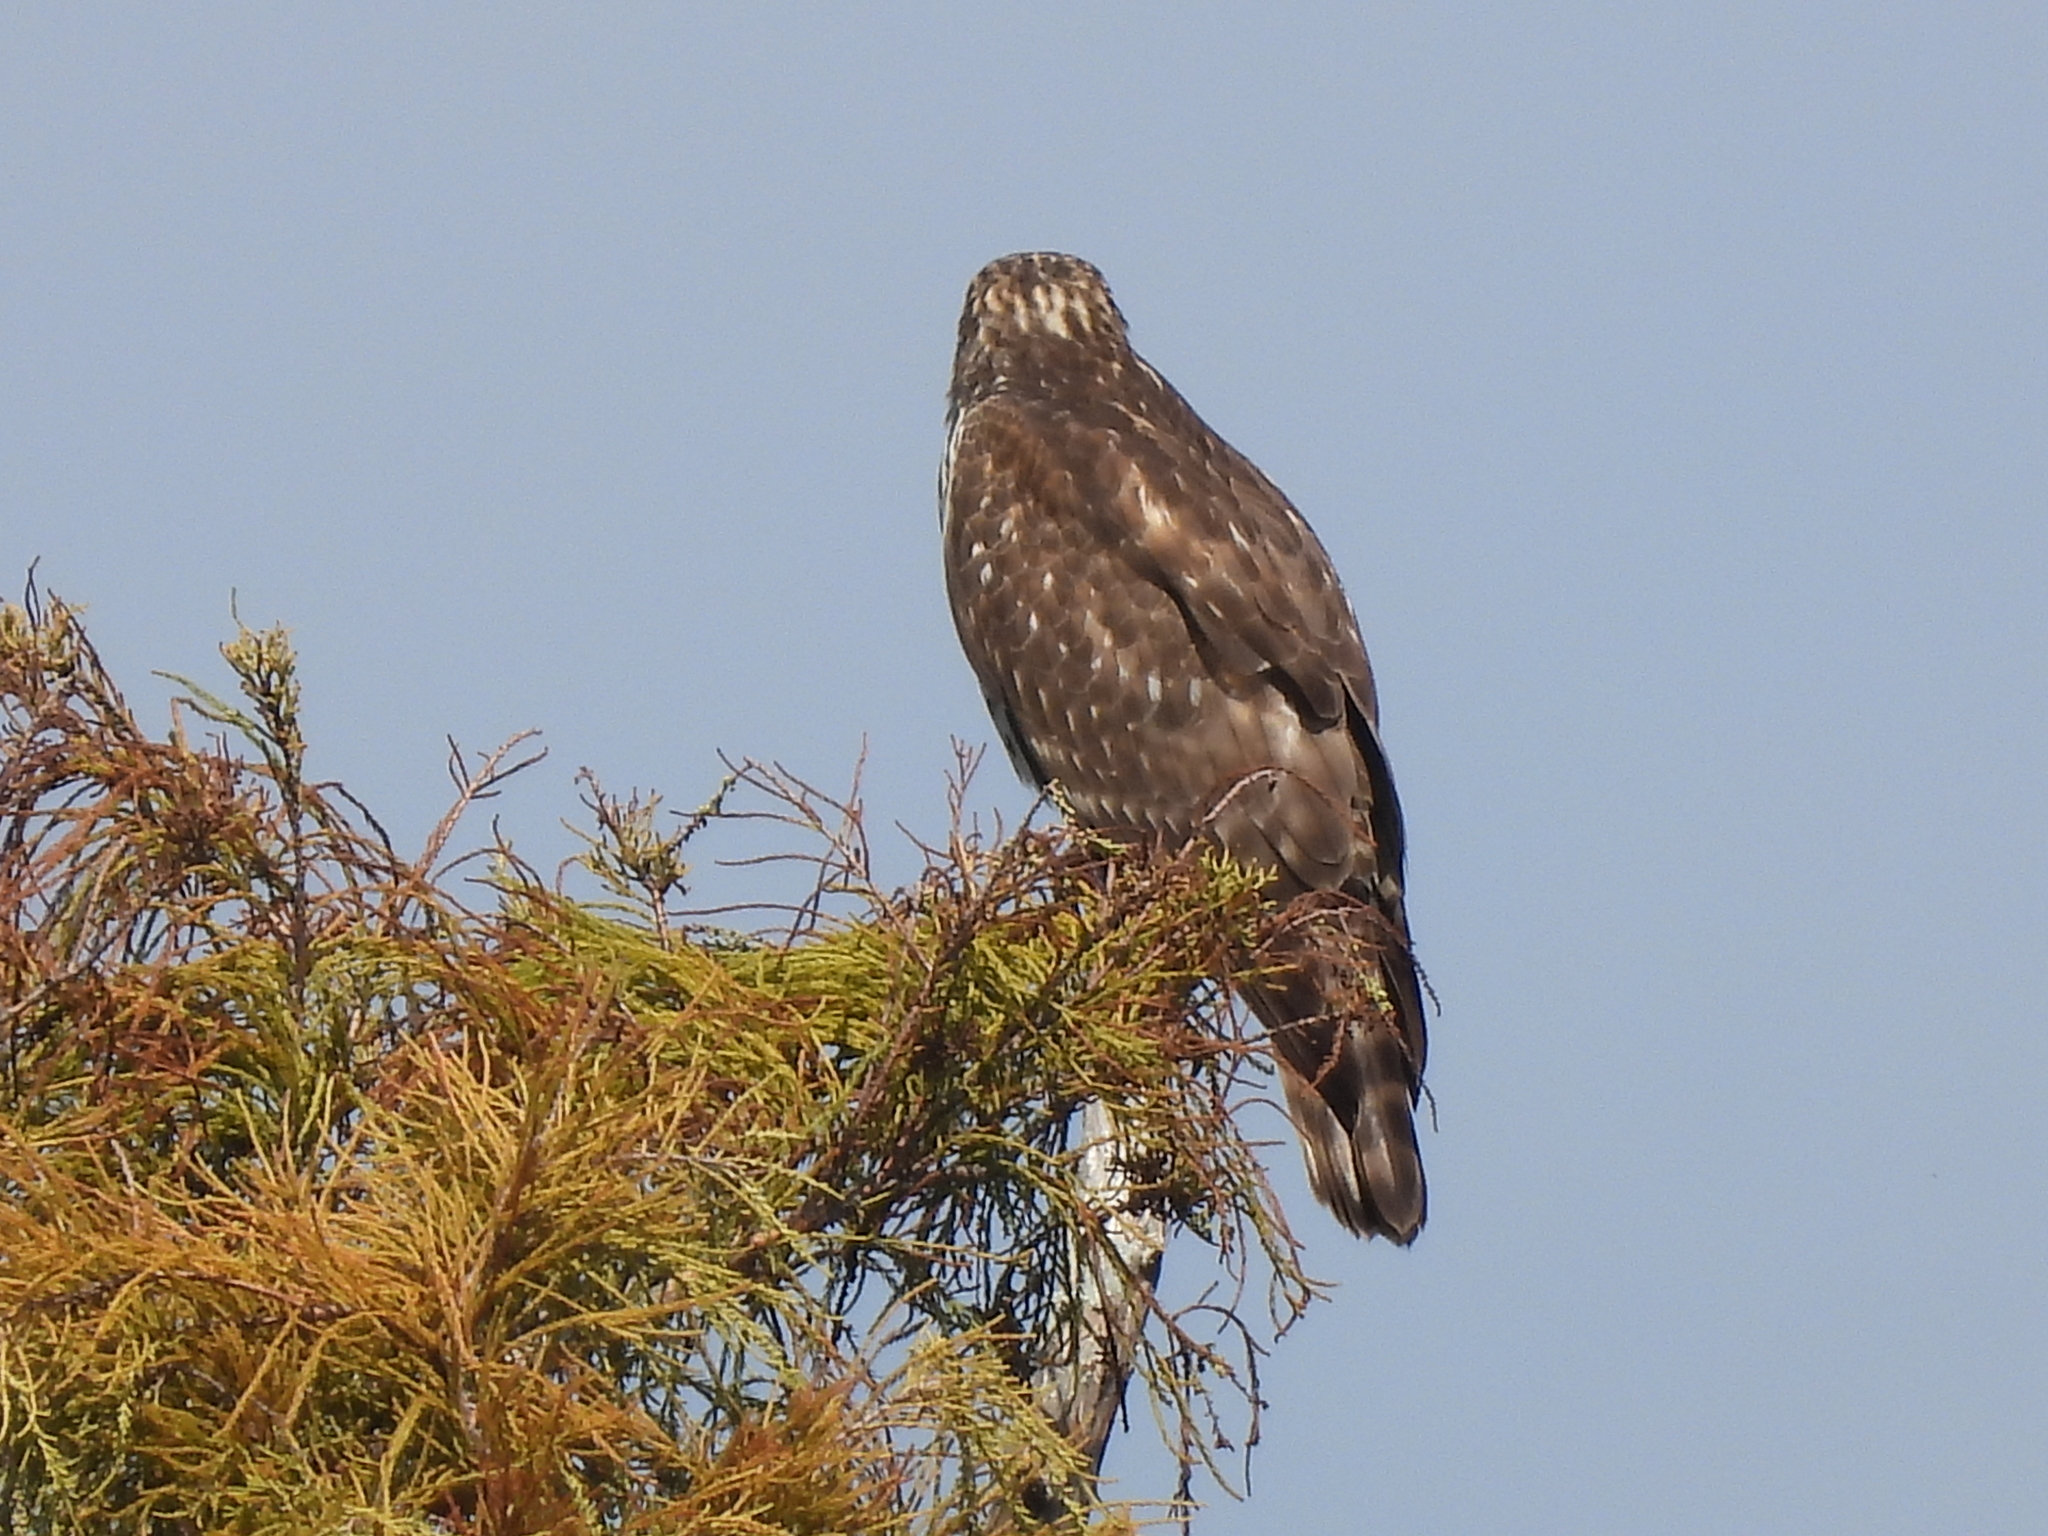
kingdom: Animalia
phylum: Chordata
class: Aves
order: Accipitriformes
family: Accipitridae
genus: Buteo
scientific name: Buteo lineatus
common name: Red-shouldered hawk
